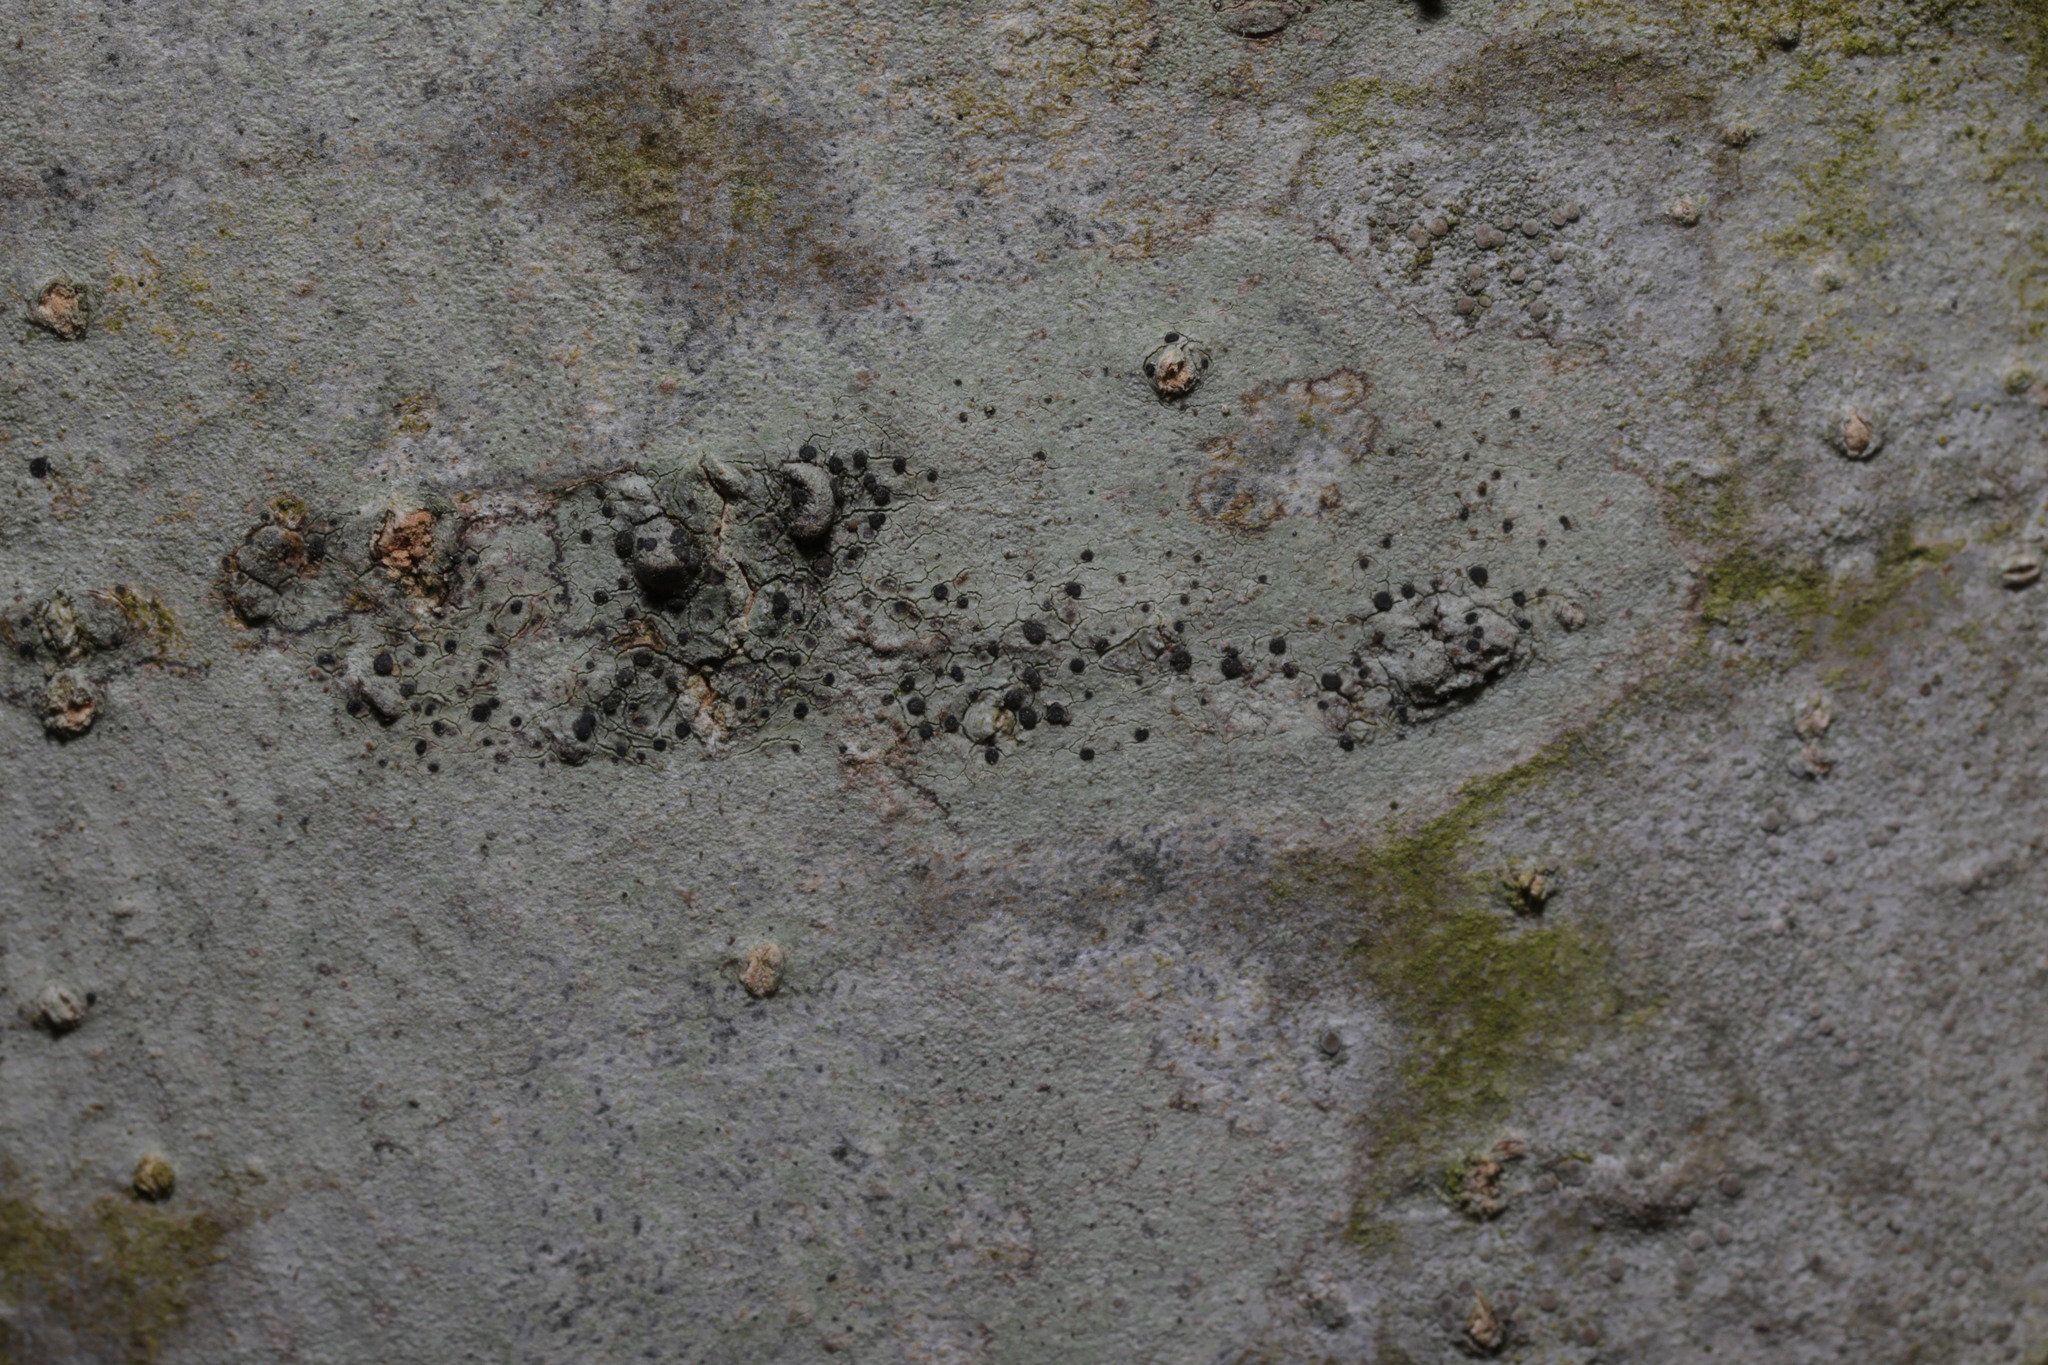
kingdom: Fungi
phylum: Ascomycota
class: Lecanoromycetes
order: Lecanorales
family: Lecanoraceae
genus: Lecidella
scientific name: Lecidella elaeochroma
